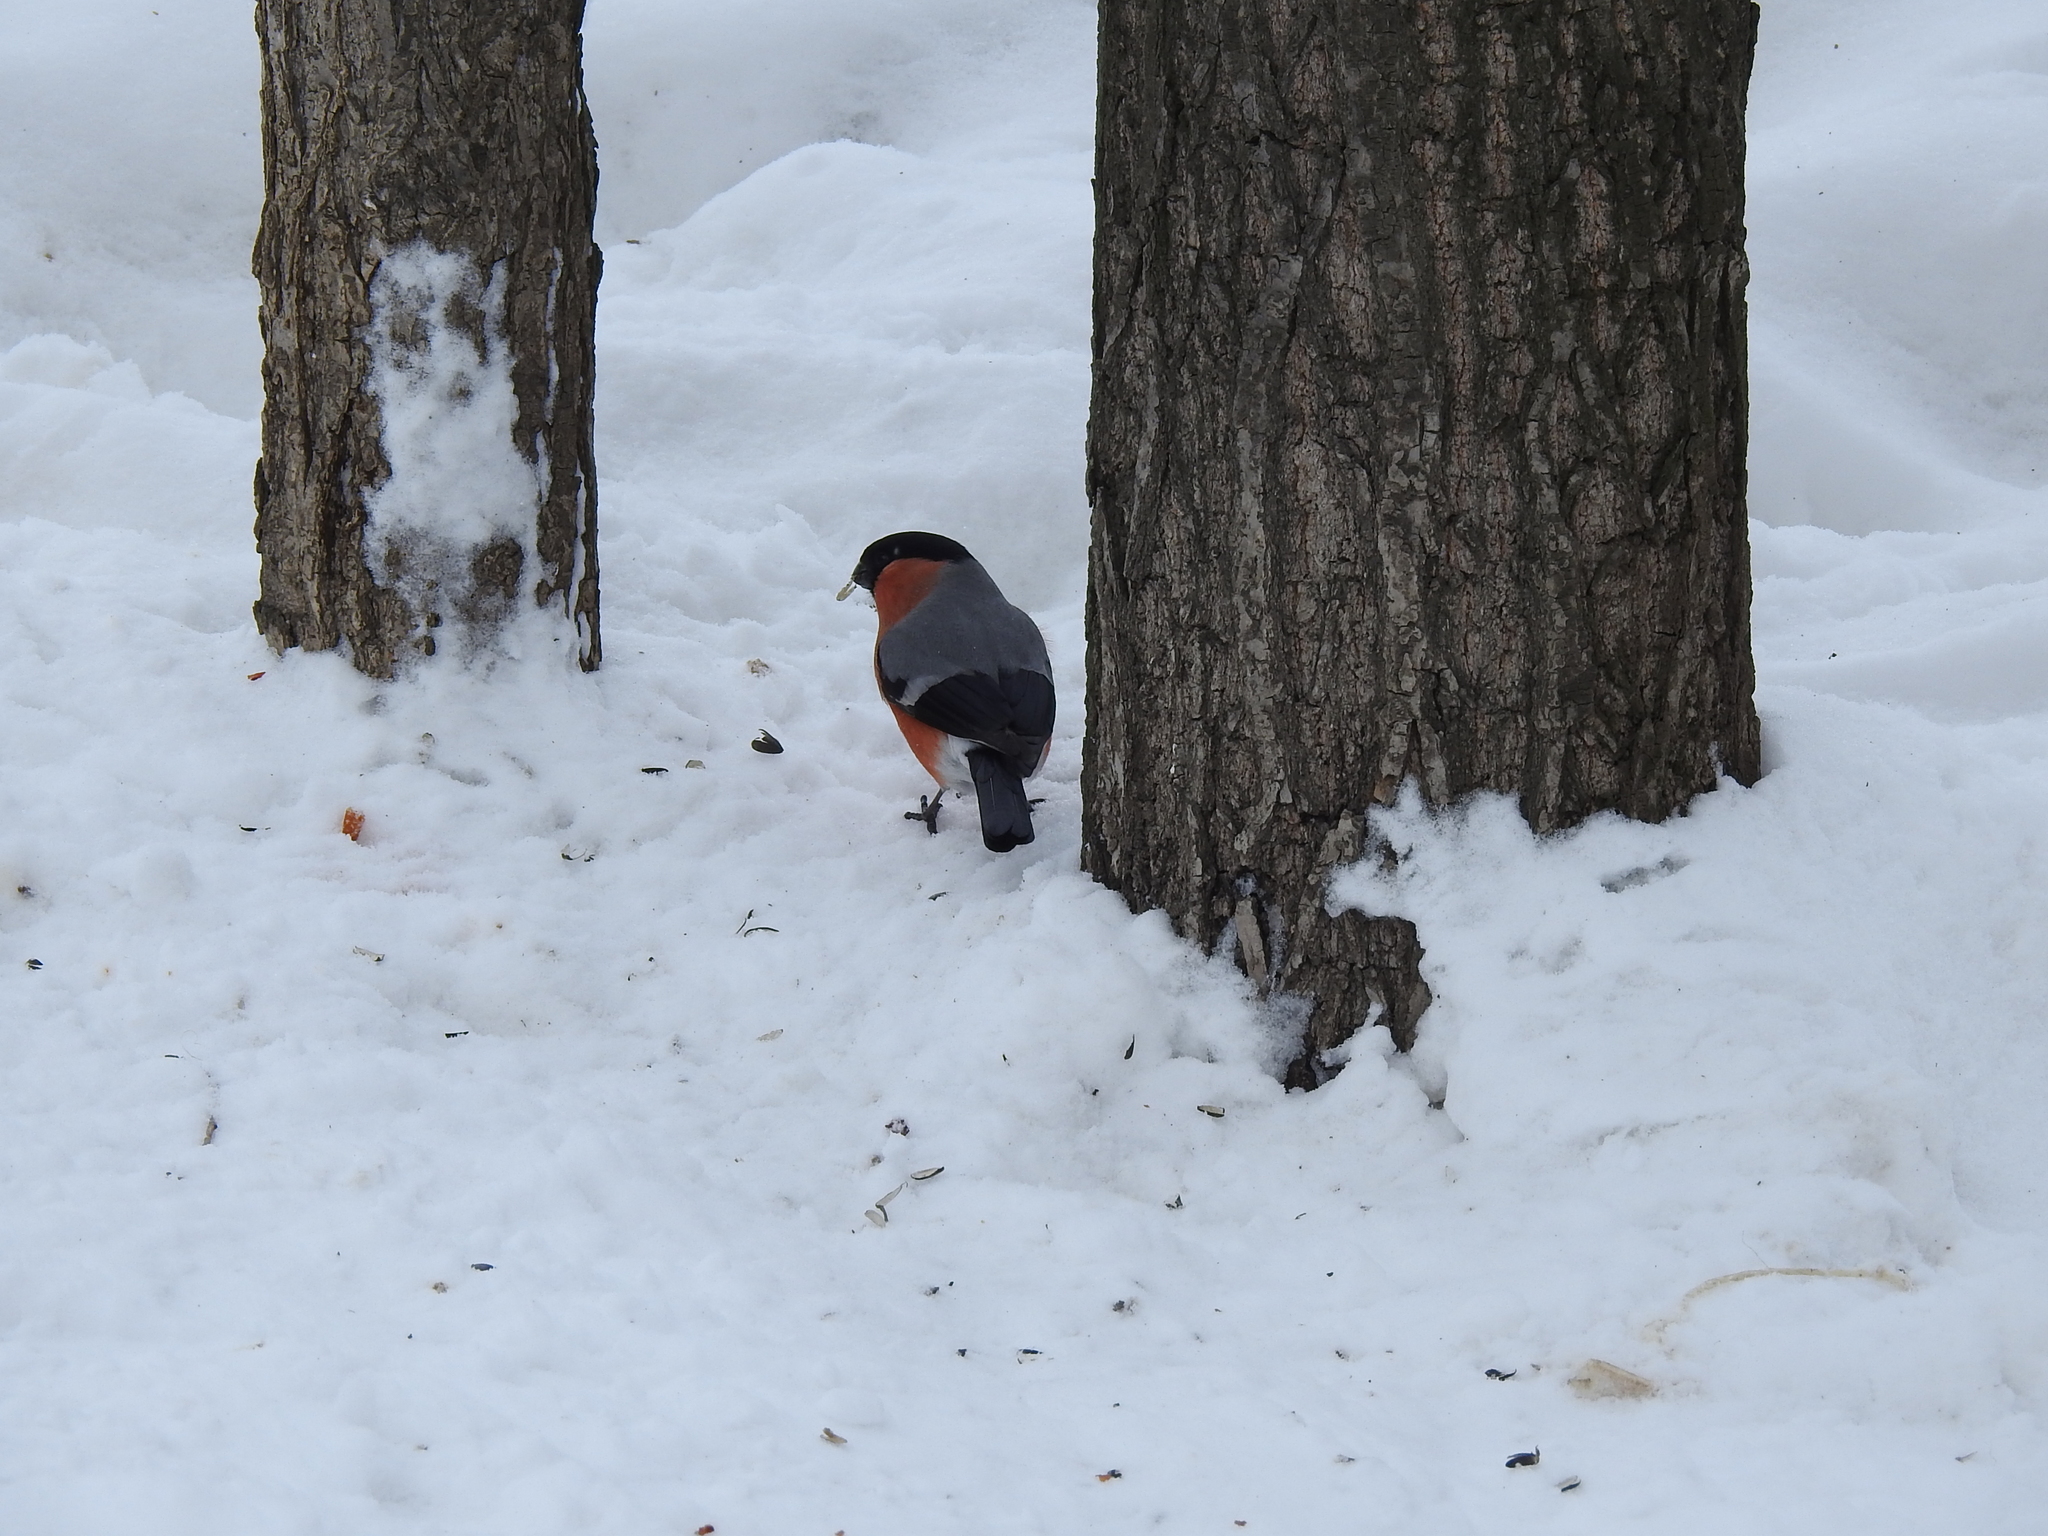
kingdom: Animalia
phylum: Chordata
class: Aves
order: Passeriformes
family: Fringillidae
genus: Pyrrhula
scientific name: Pyrrhula pyrrhula
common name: Eurasian bullfinch
